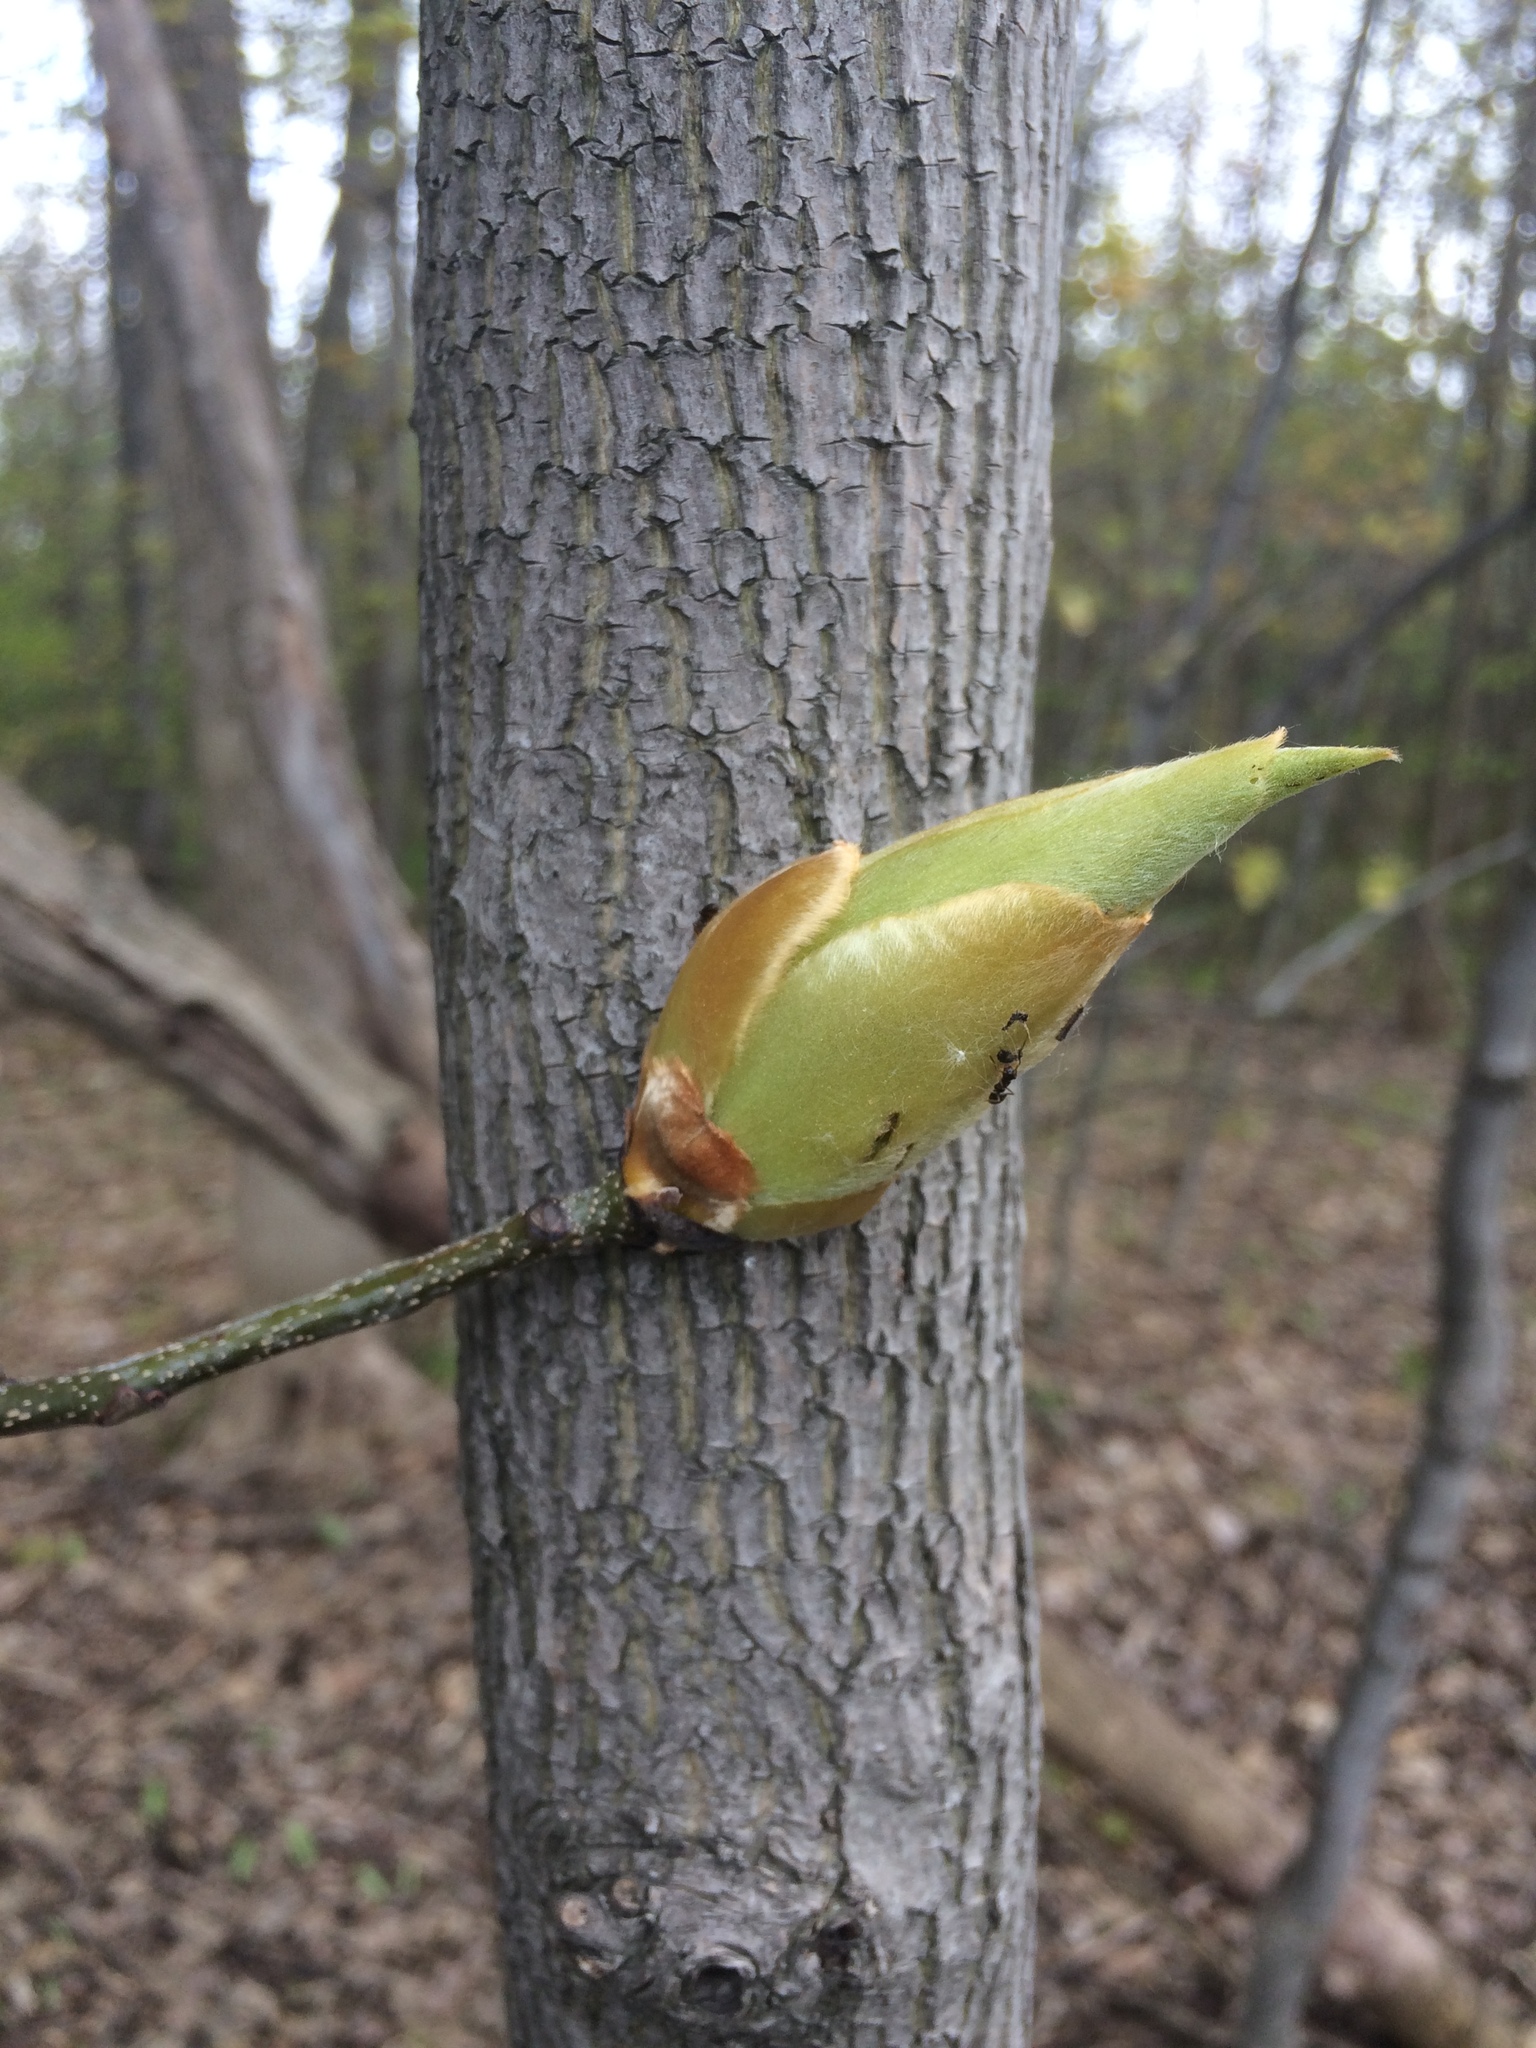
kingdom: Plantae
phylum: Tracheophyta
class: Magnoliopsida
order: Fagales
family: Juglandaceae
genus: Carya
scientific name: Carya ovata
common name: Shagbark hickory
